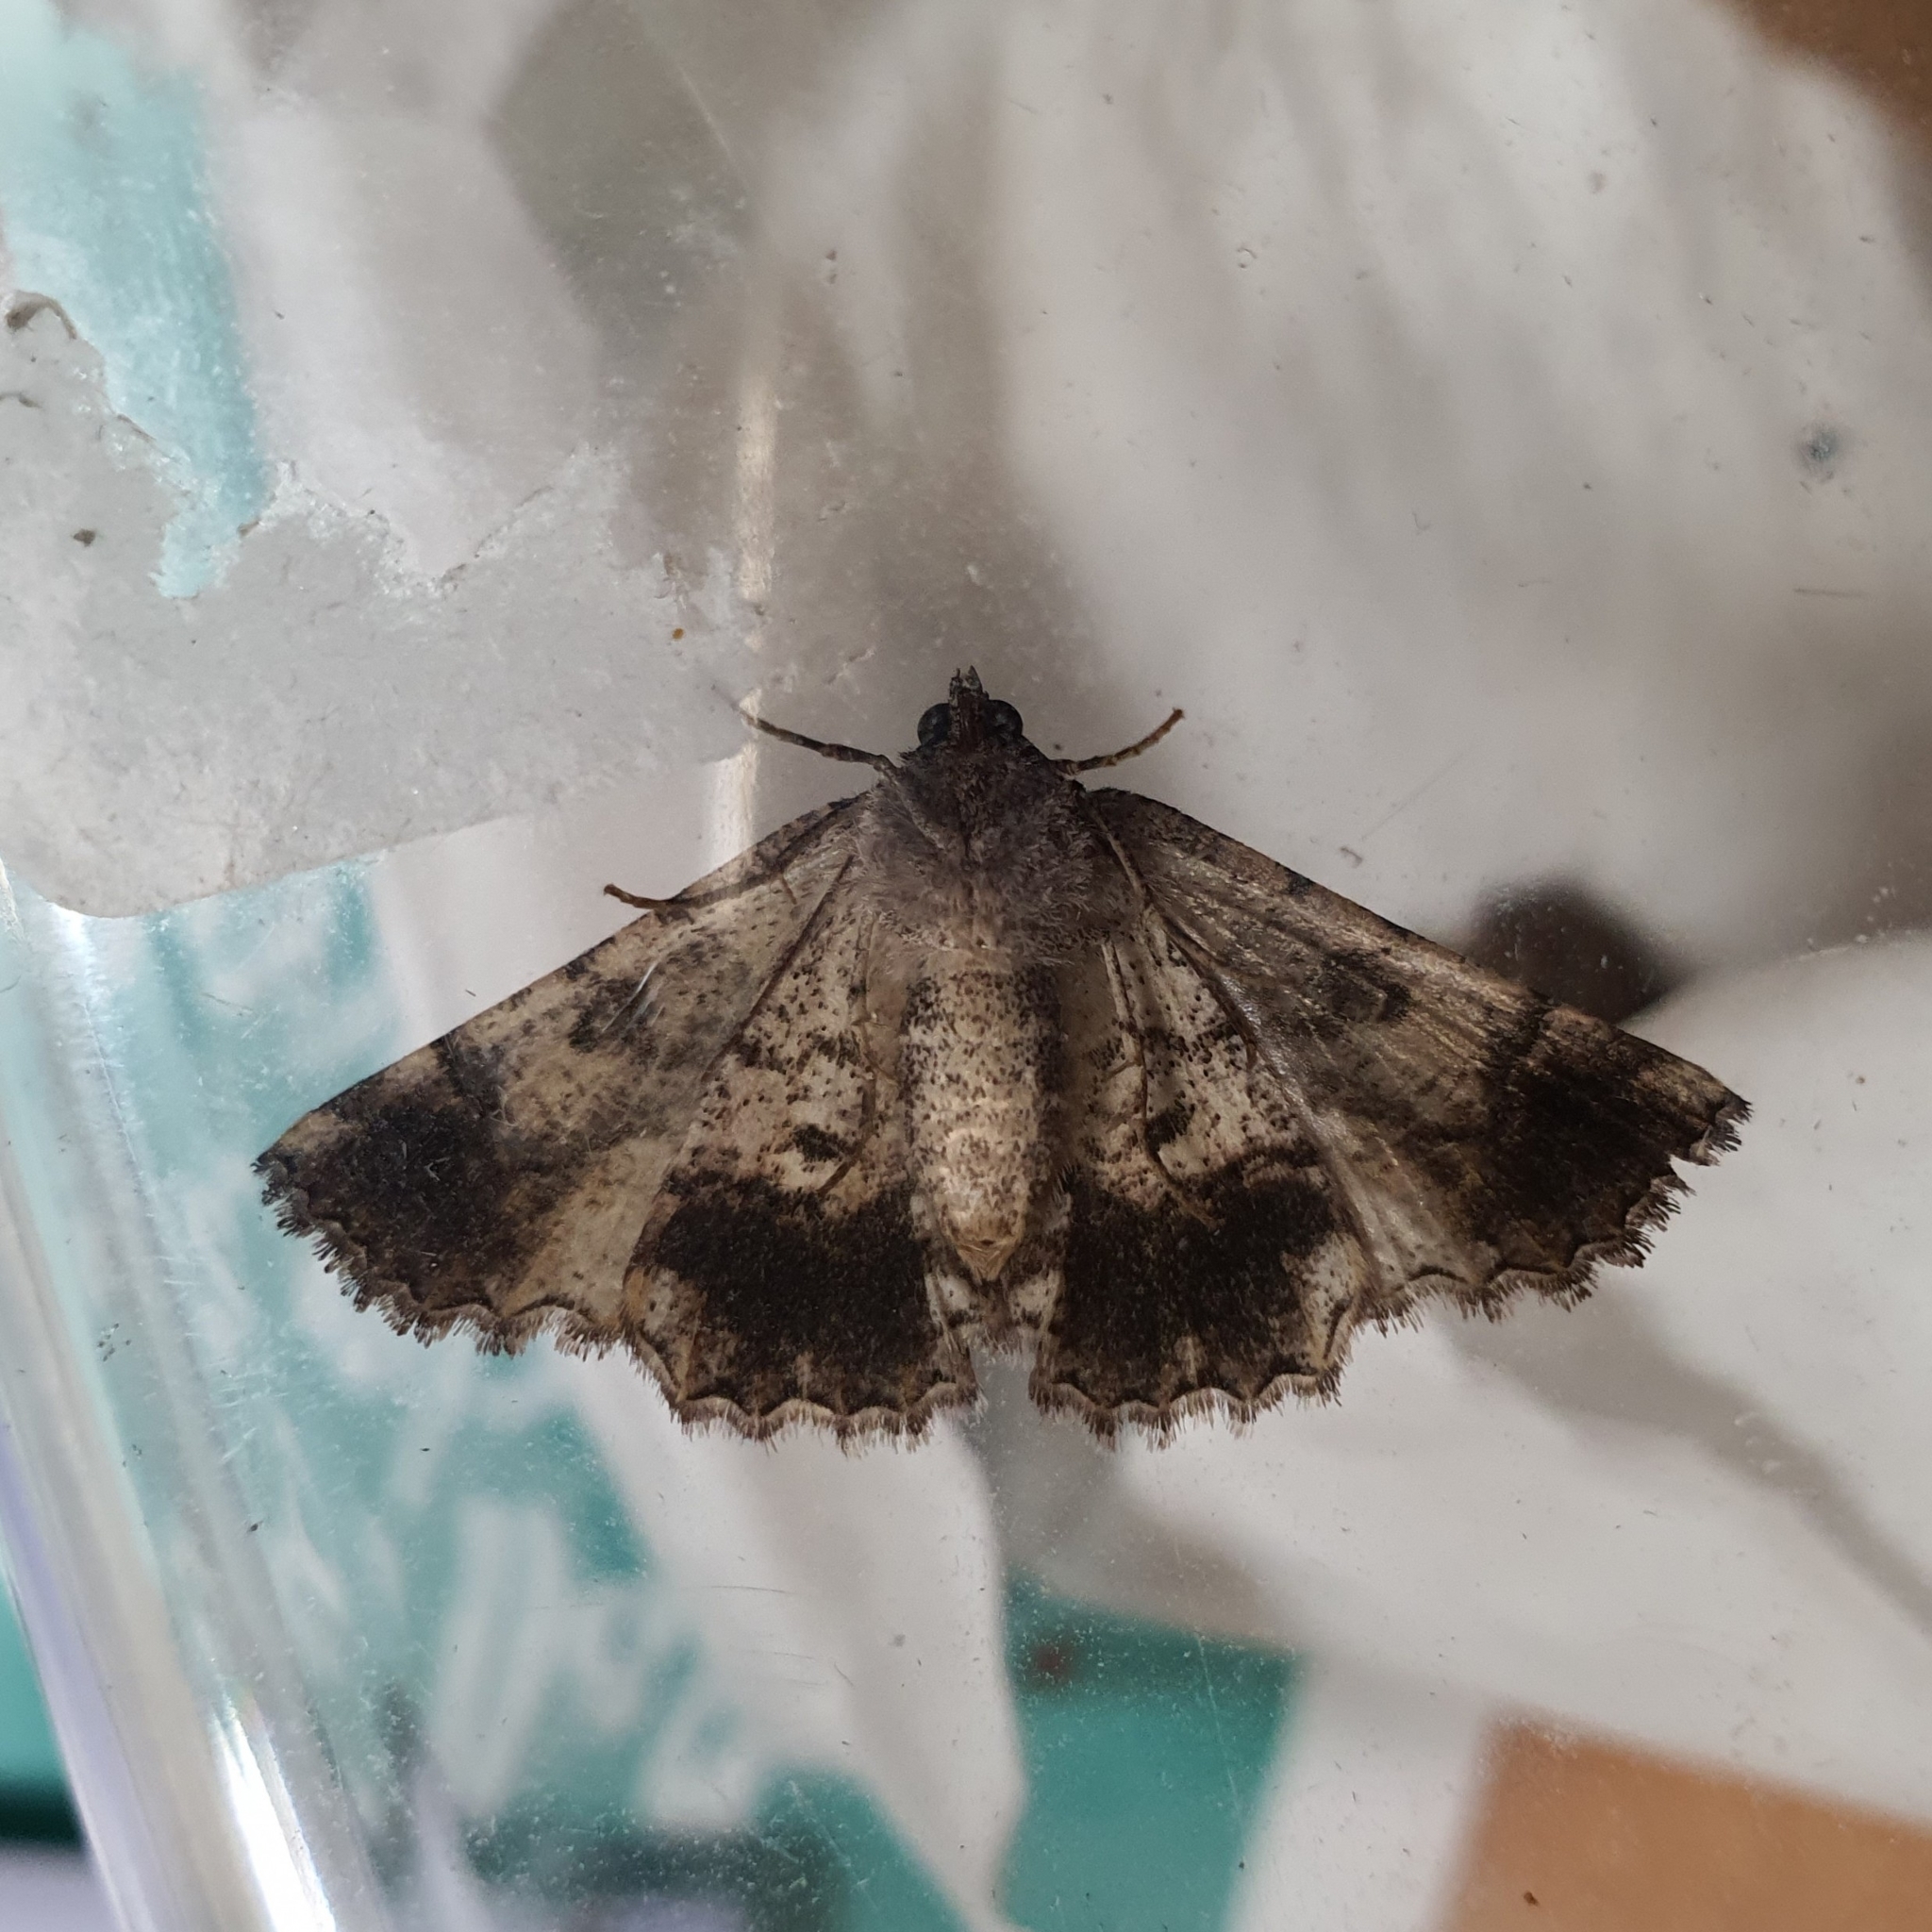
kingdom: Animalia
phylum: Arthropoda
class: Insecta
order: Lepidoptera
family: Geometridae
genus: Gastrina
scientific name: Gastrina cristaria
